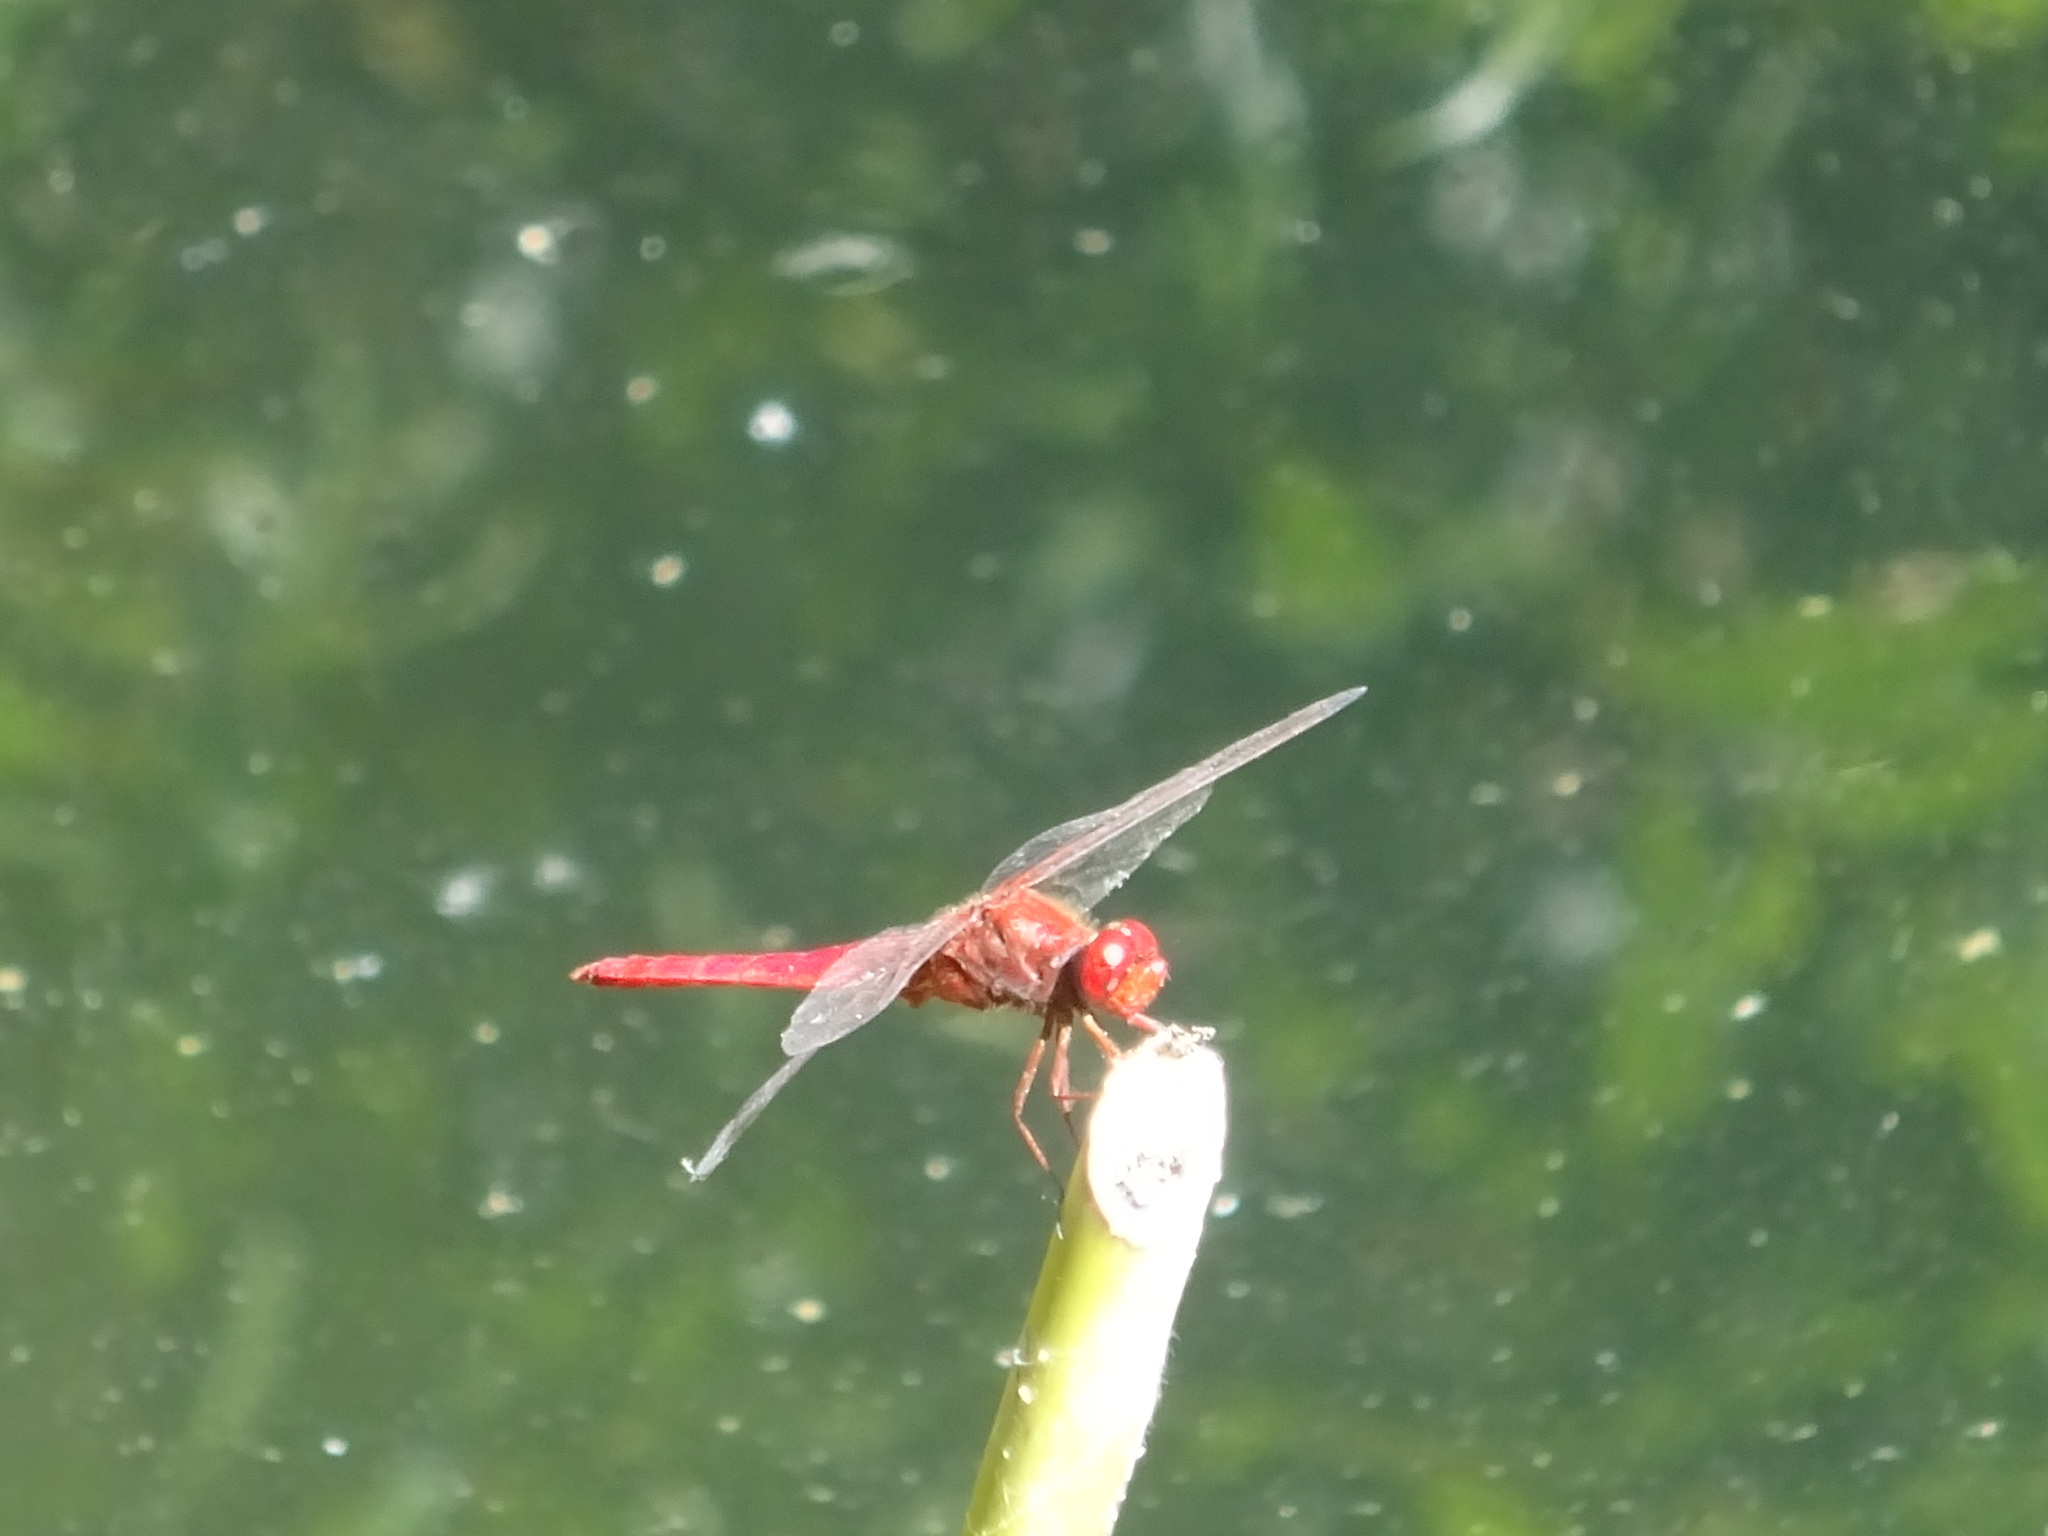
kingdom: Animalia
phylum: Arthropoda
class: Insecta
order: Odonata
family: Libellulidae
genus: Crocothemis
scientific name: Crocothemis erythraea
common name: Scarlet dragonfly
